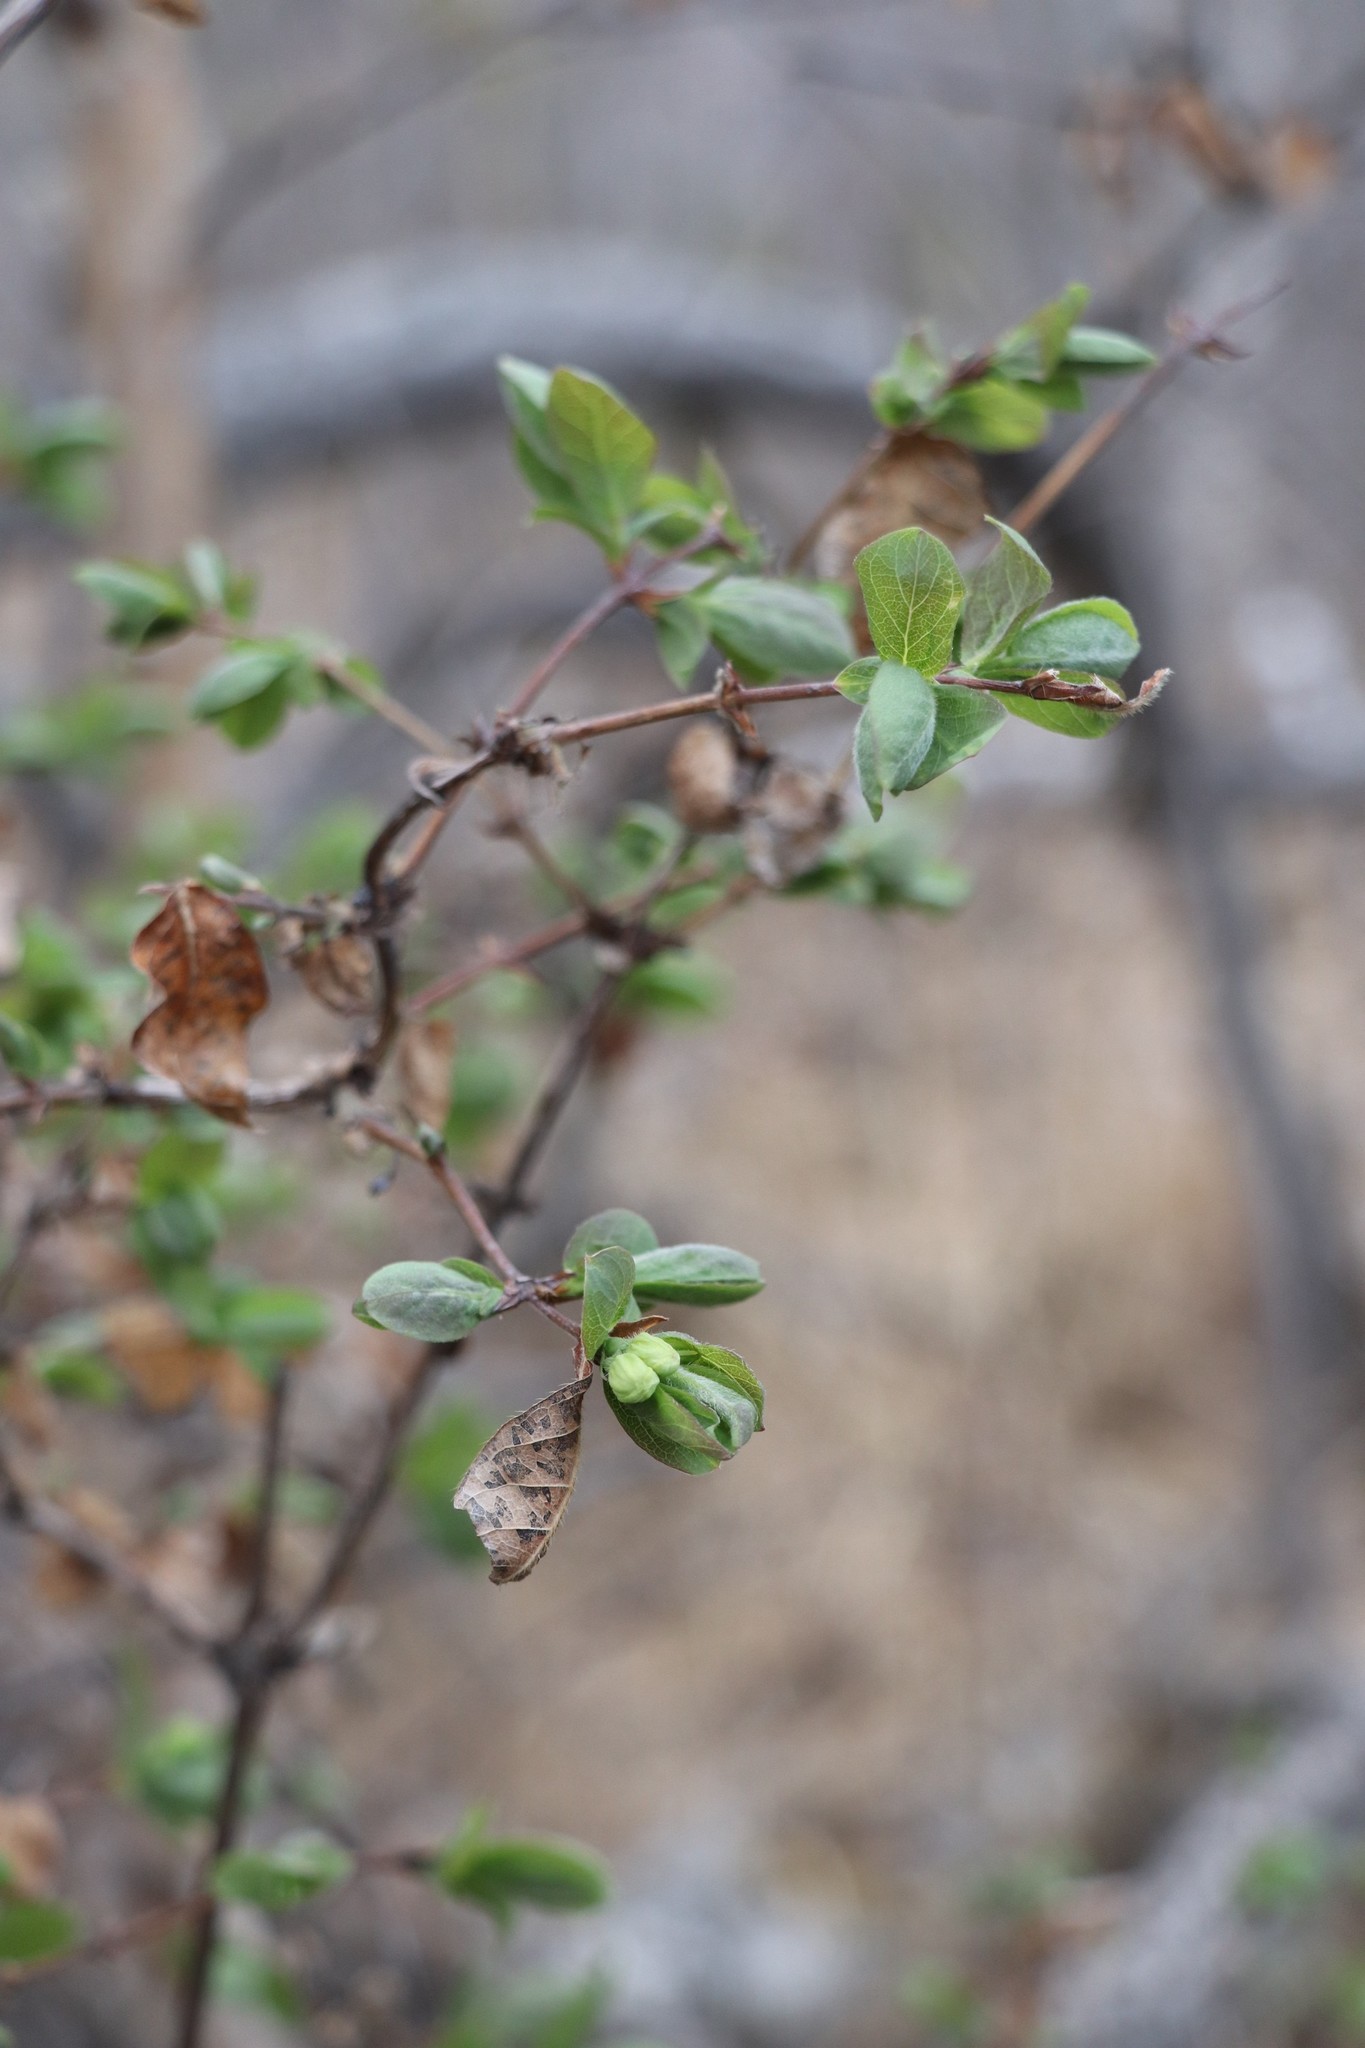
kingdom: Plantae
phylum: Tracheophyta
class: Magnoliopsida
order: Dipsacales
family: Caprifoliaceae
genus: Lonicera
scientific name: Lonicera caerulea
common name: Blue honeysuckle
